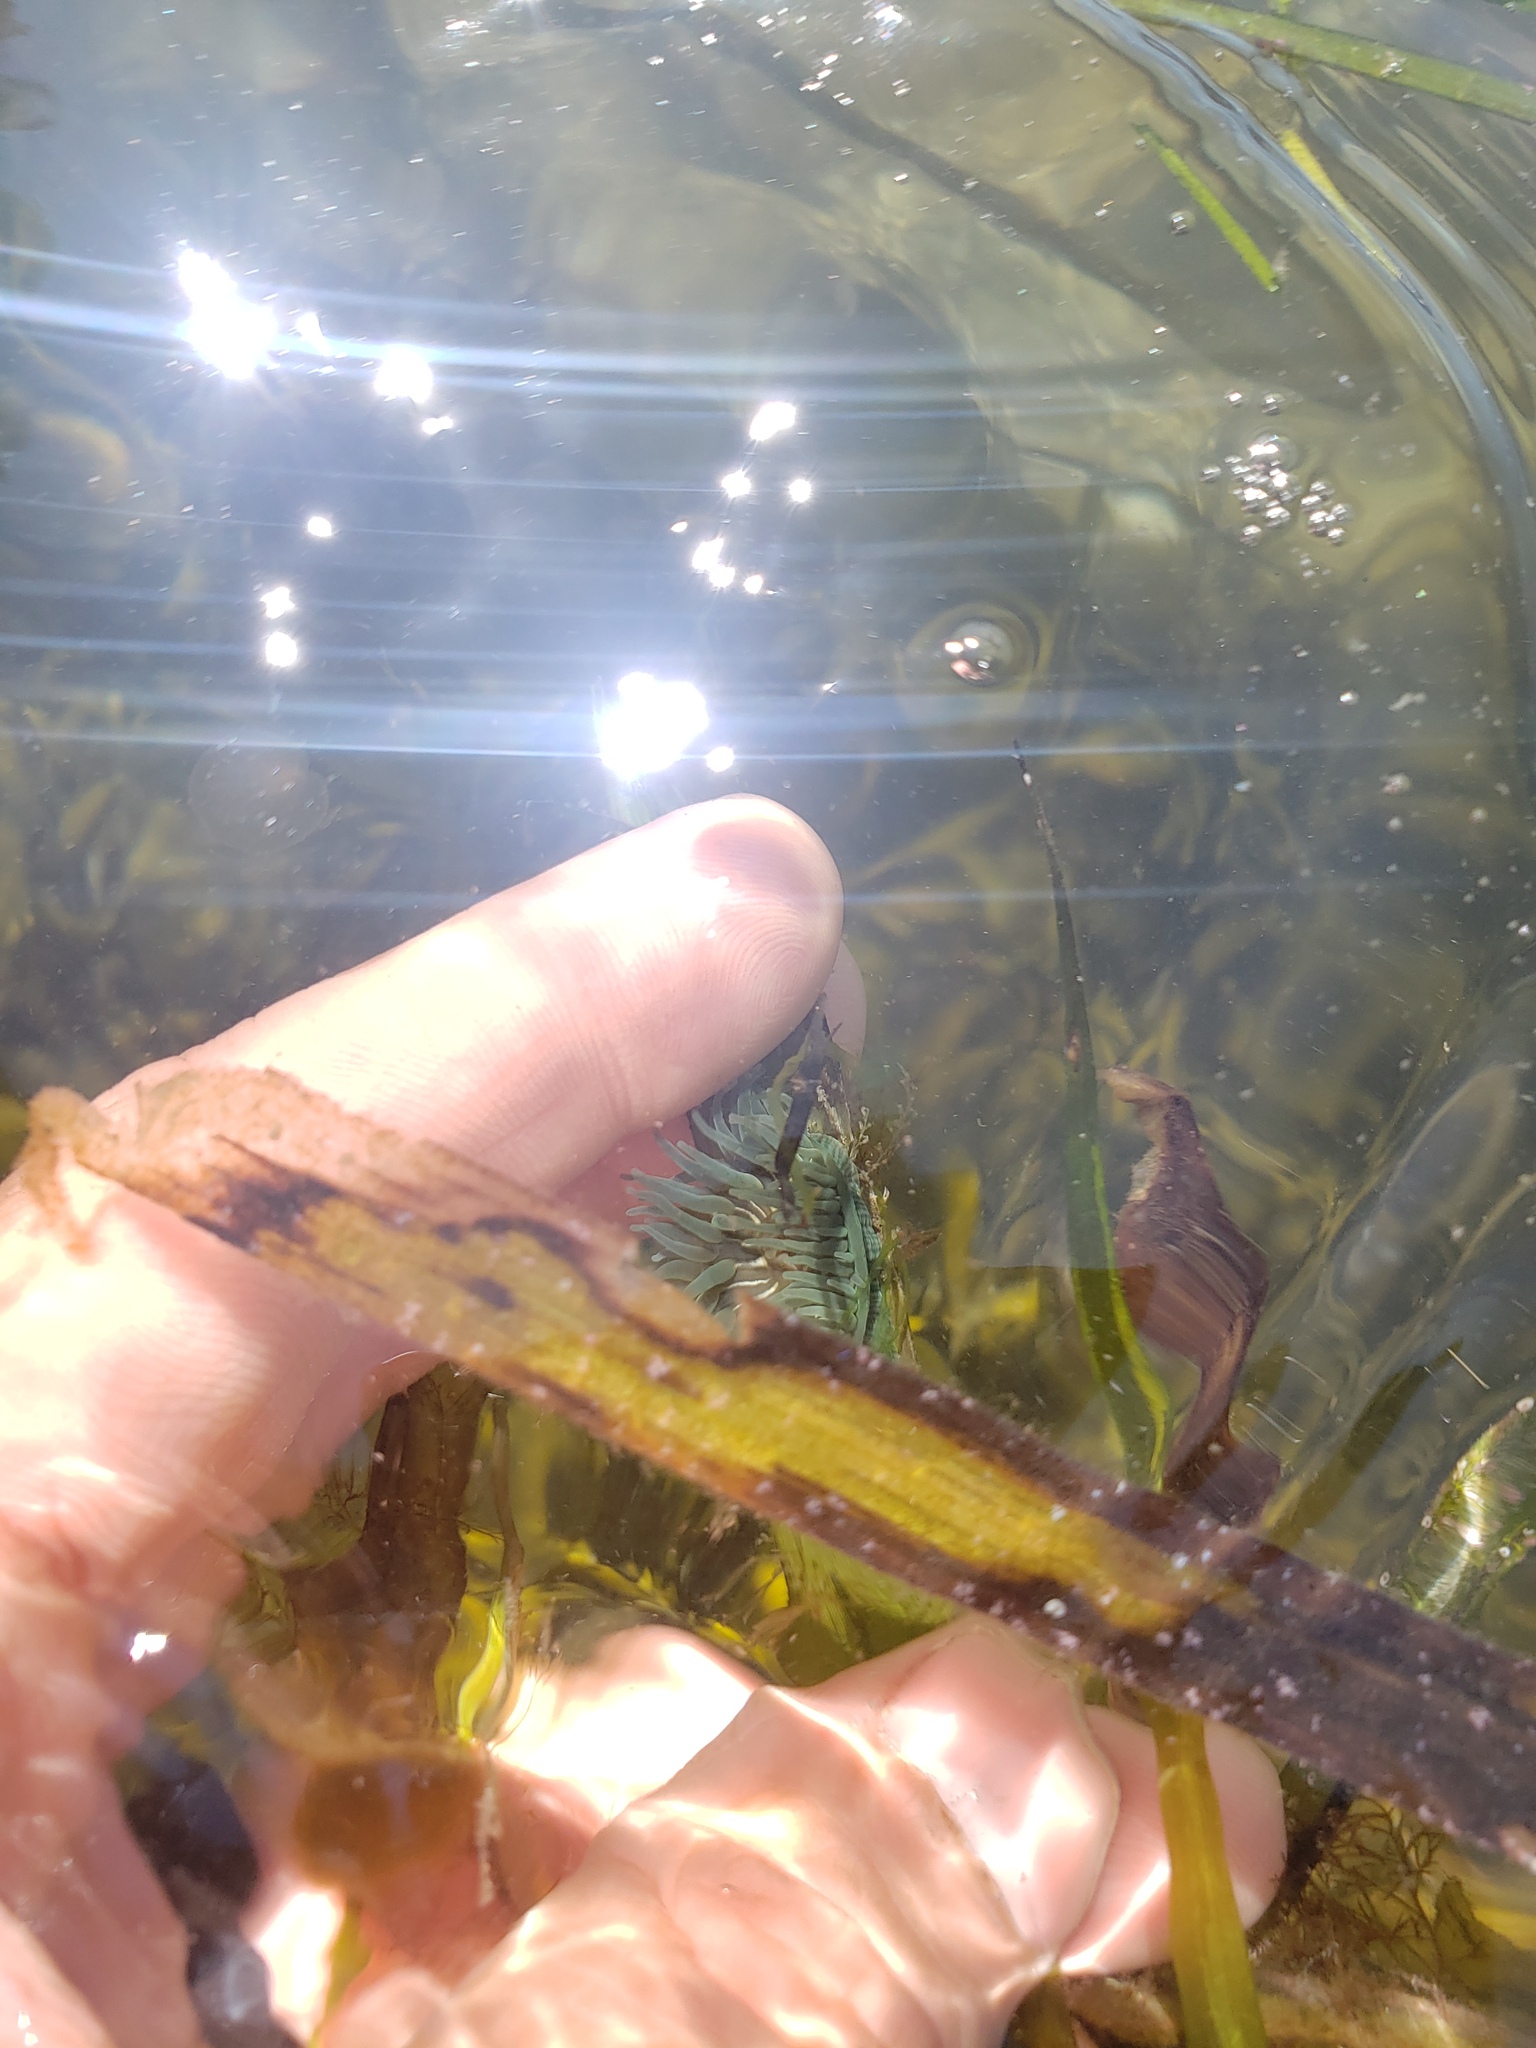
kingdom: Animalia
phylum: Cnidaria
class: Anthozoa
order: Actiniaria
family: Actiniidae
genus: Epiactis
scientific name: Epiactis prolifera
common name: Brooding anemone
